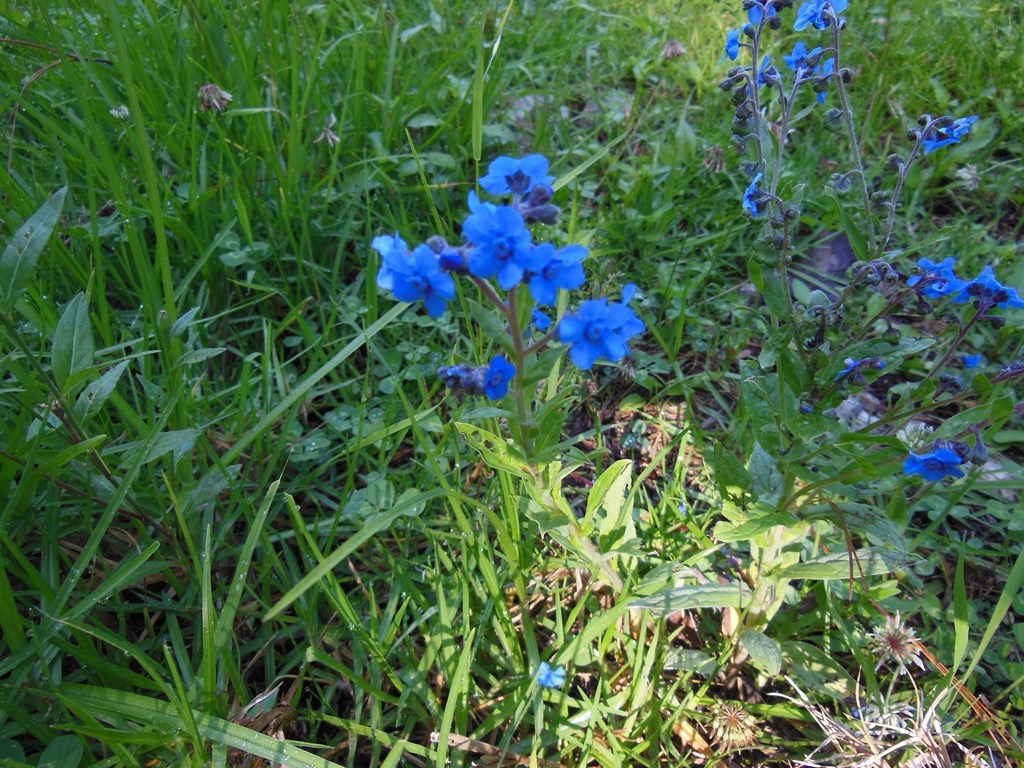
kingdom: Plantae
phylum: Tracheophyta
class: Magnoliopsida
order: Boraginales
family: Boraginaceae
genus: Cynoglossum
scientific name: Cynoglossum amabile
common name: Chinese hound's tongue
